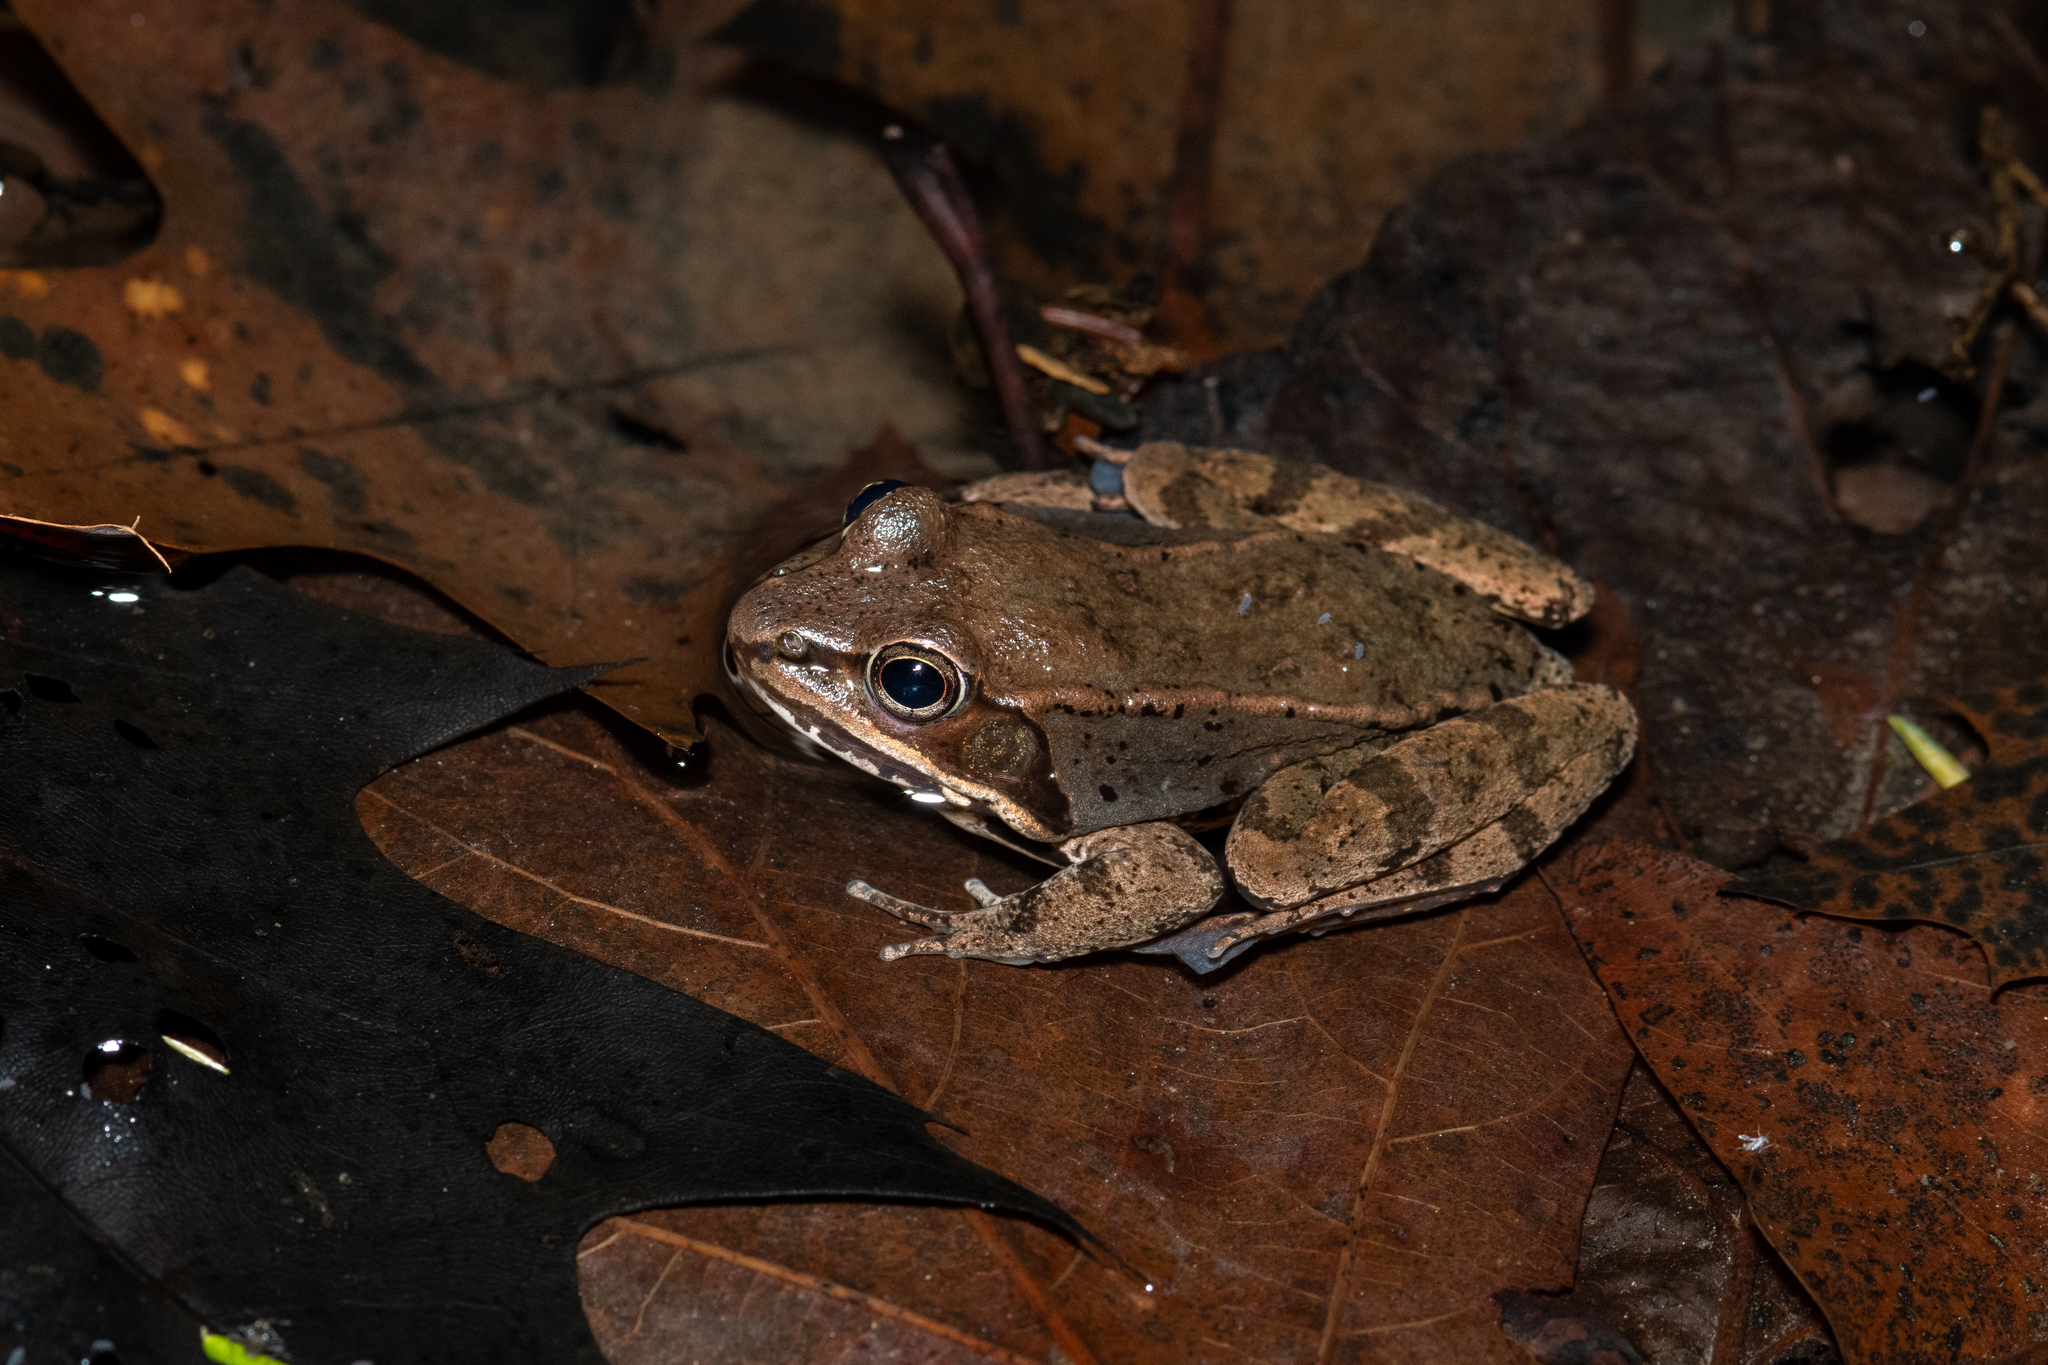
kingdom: Animalia
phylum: Chordata
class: Amphibia
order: Anura
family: Ranidae
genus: Lithobates
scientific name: Lithobates sylvaticus
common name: Wood frog
